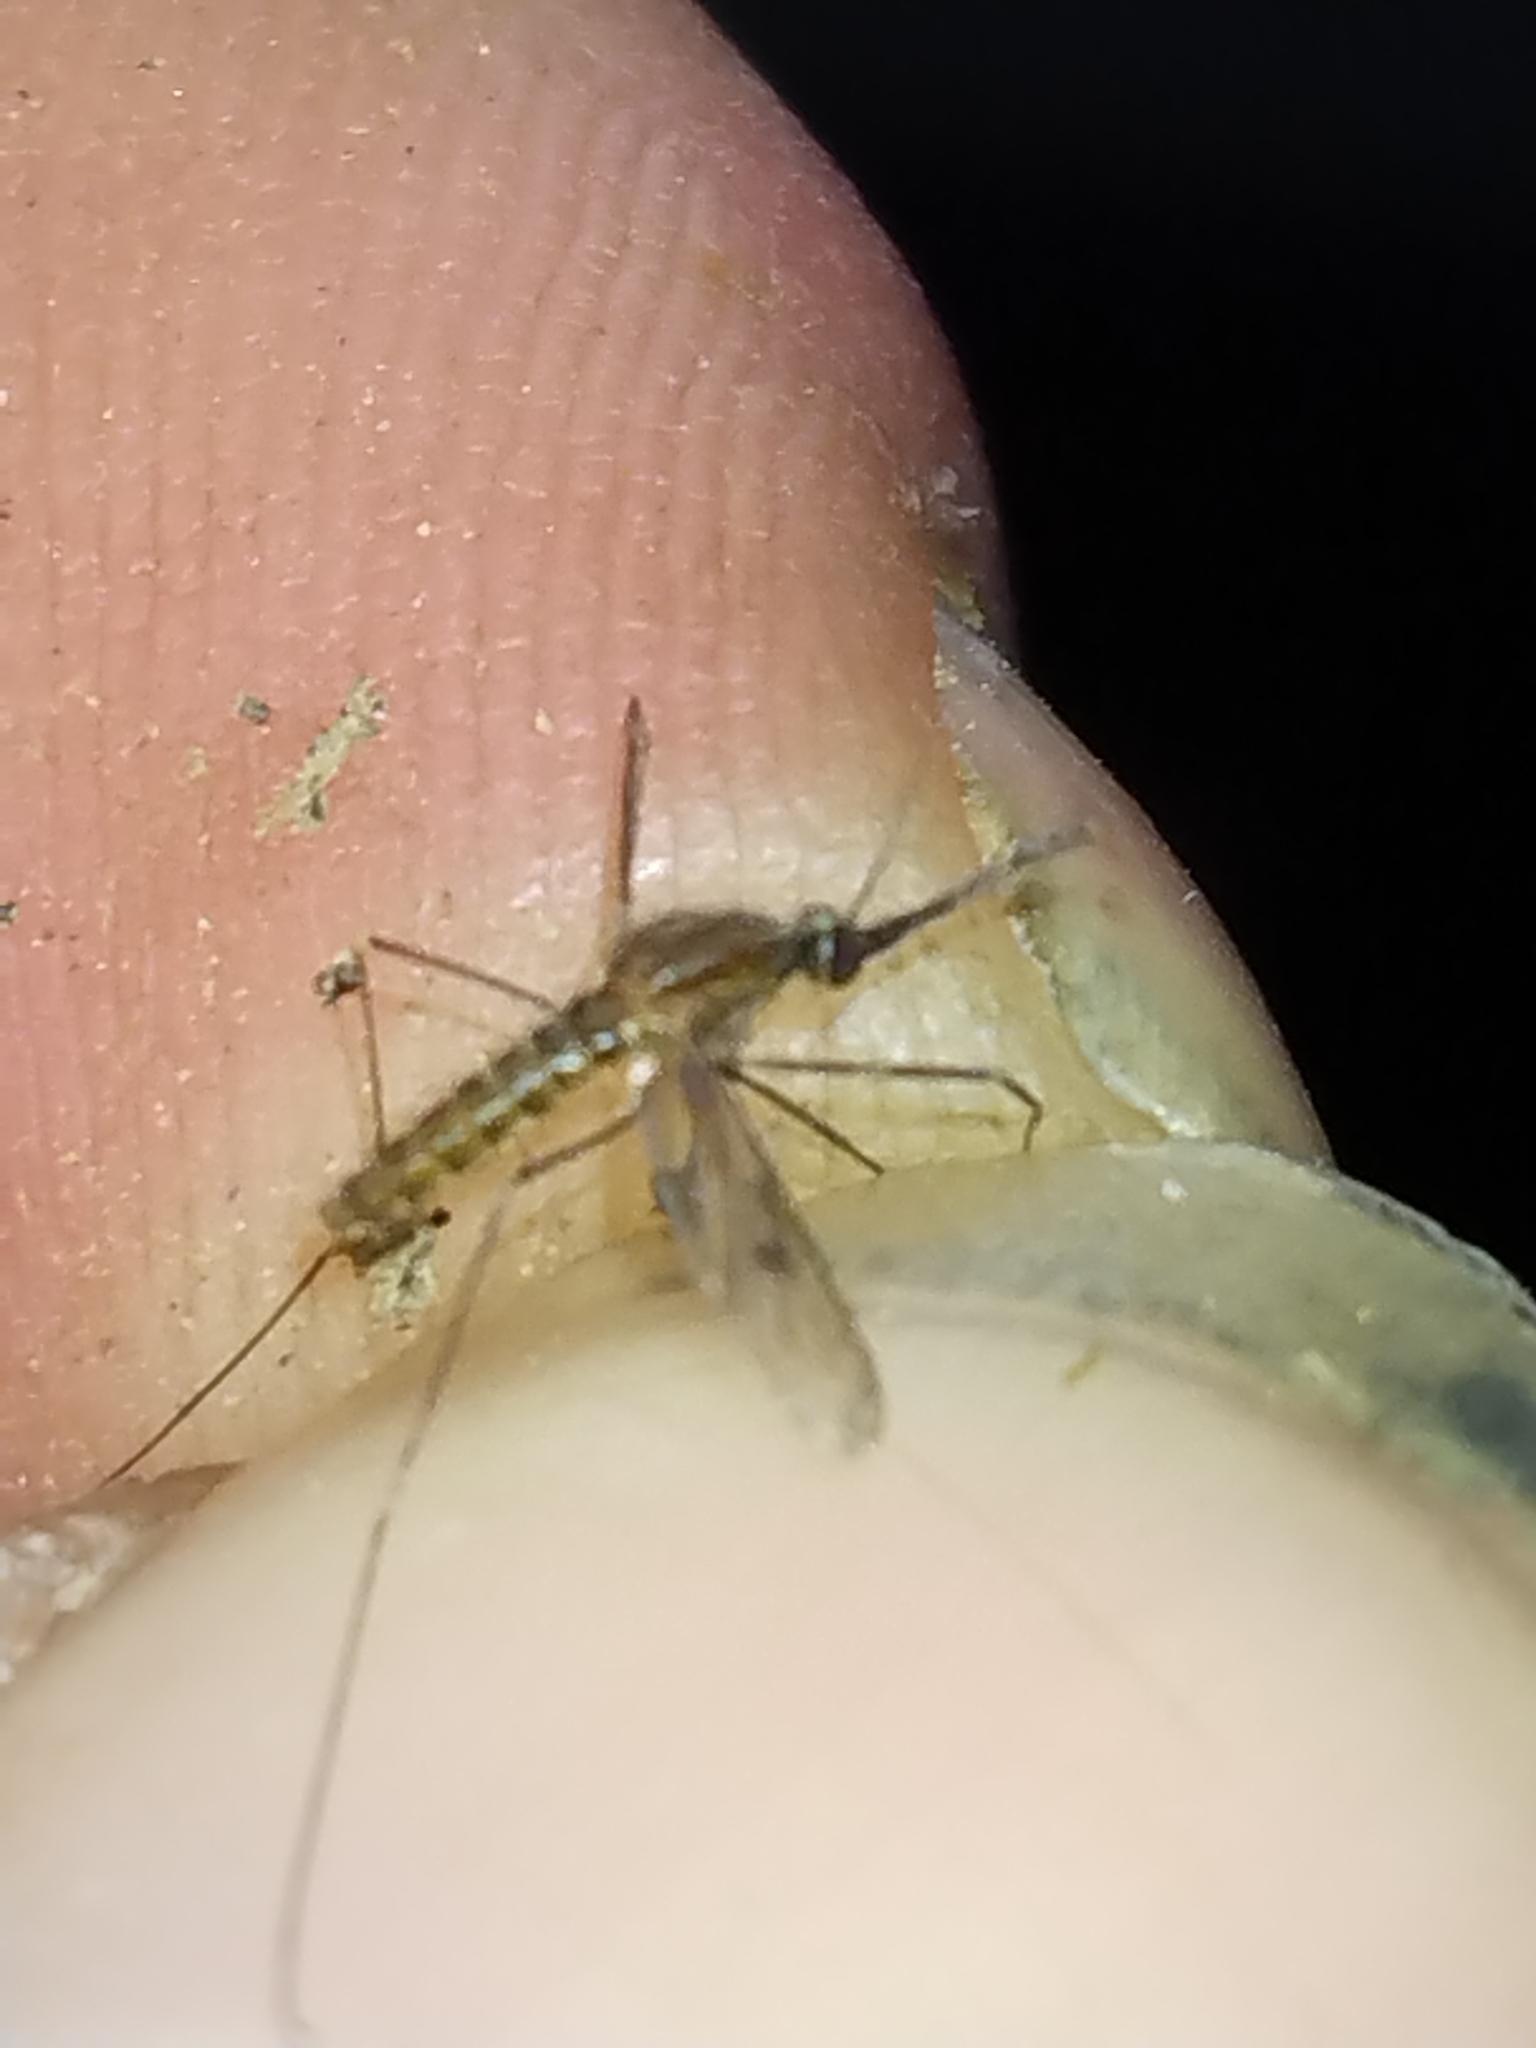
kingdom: Animalia
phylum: Arthropoda
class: Insecta
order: Diptera
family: Culicidae
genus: Anopheles
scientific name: Anopheles
